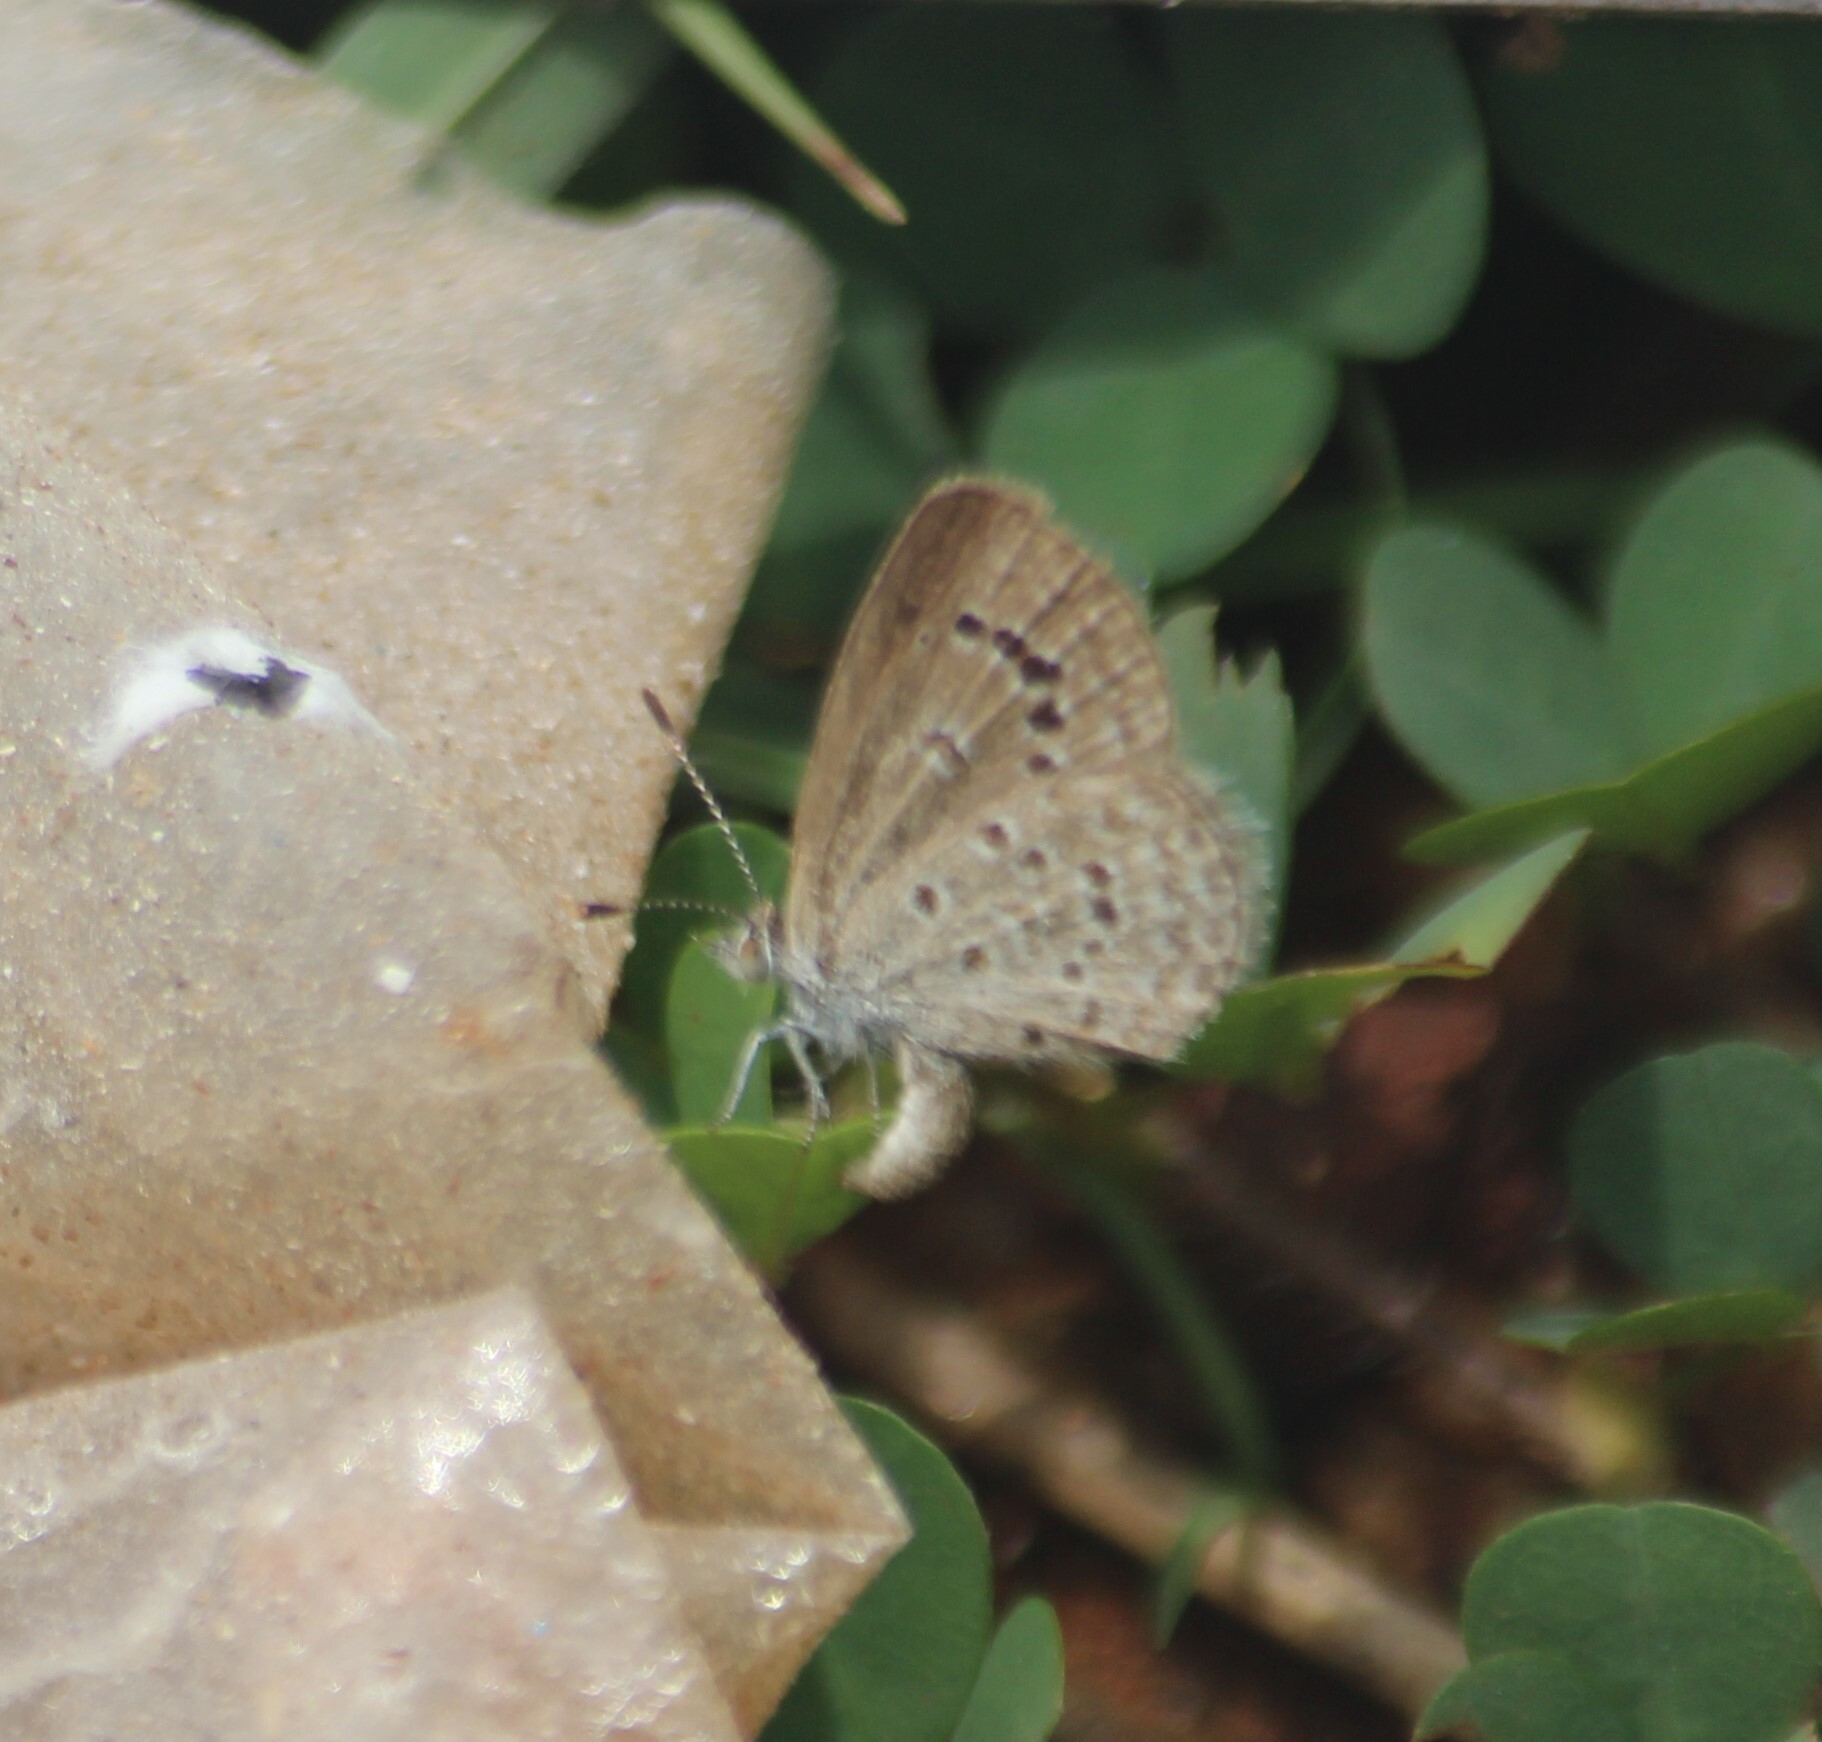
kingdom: Animalia
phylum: Arthropoda
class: Insecta
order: Lepidoptera
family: Lycaenidae
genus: Zizina
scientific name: Zizina otis
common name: Lesser grass blue
